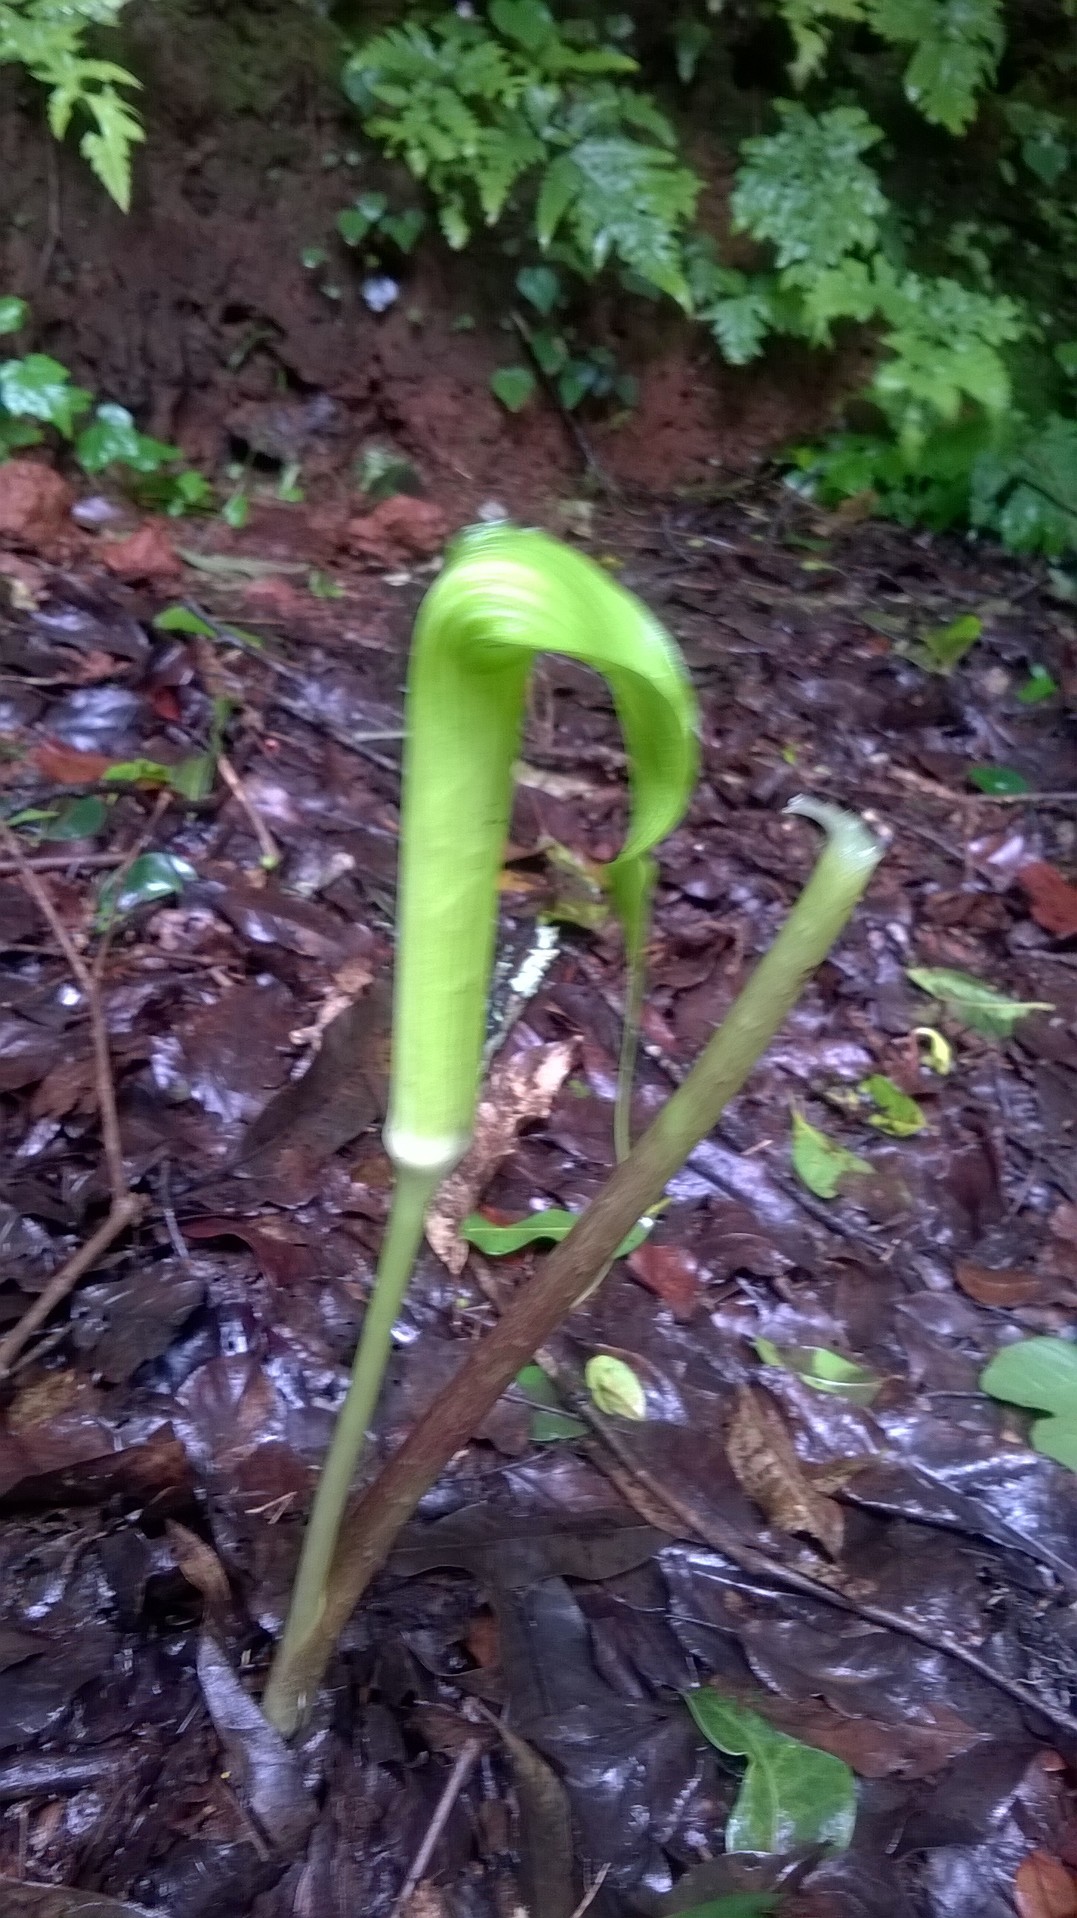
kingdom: Plantae
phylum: Tracheophyta
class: Liliopsida
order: Alismatales
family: Araceae
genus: Arisaema
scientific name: Arisaema tortuosum
